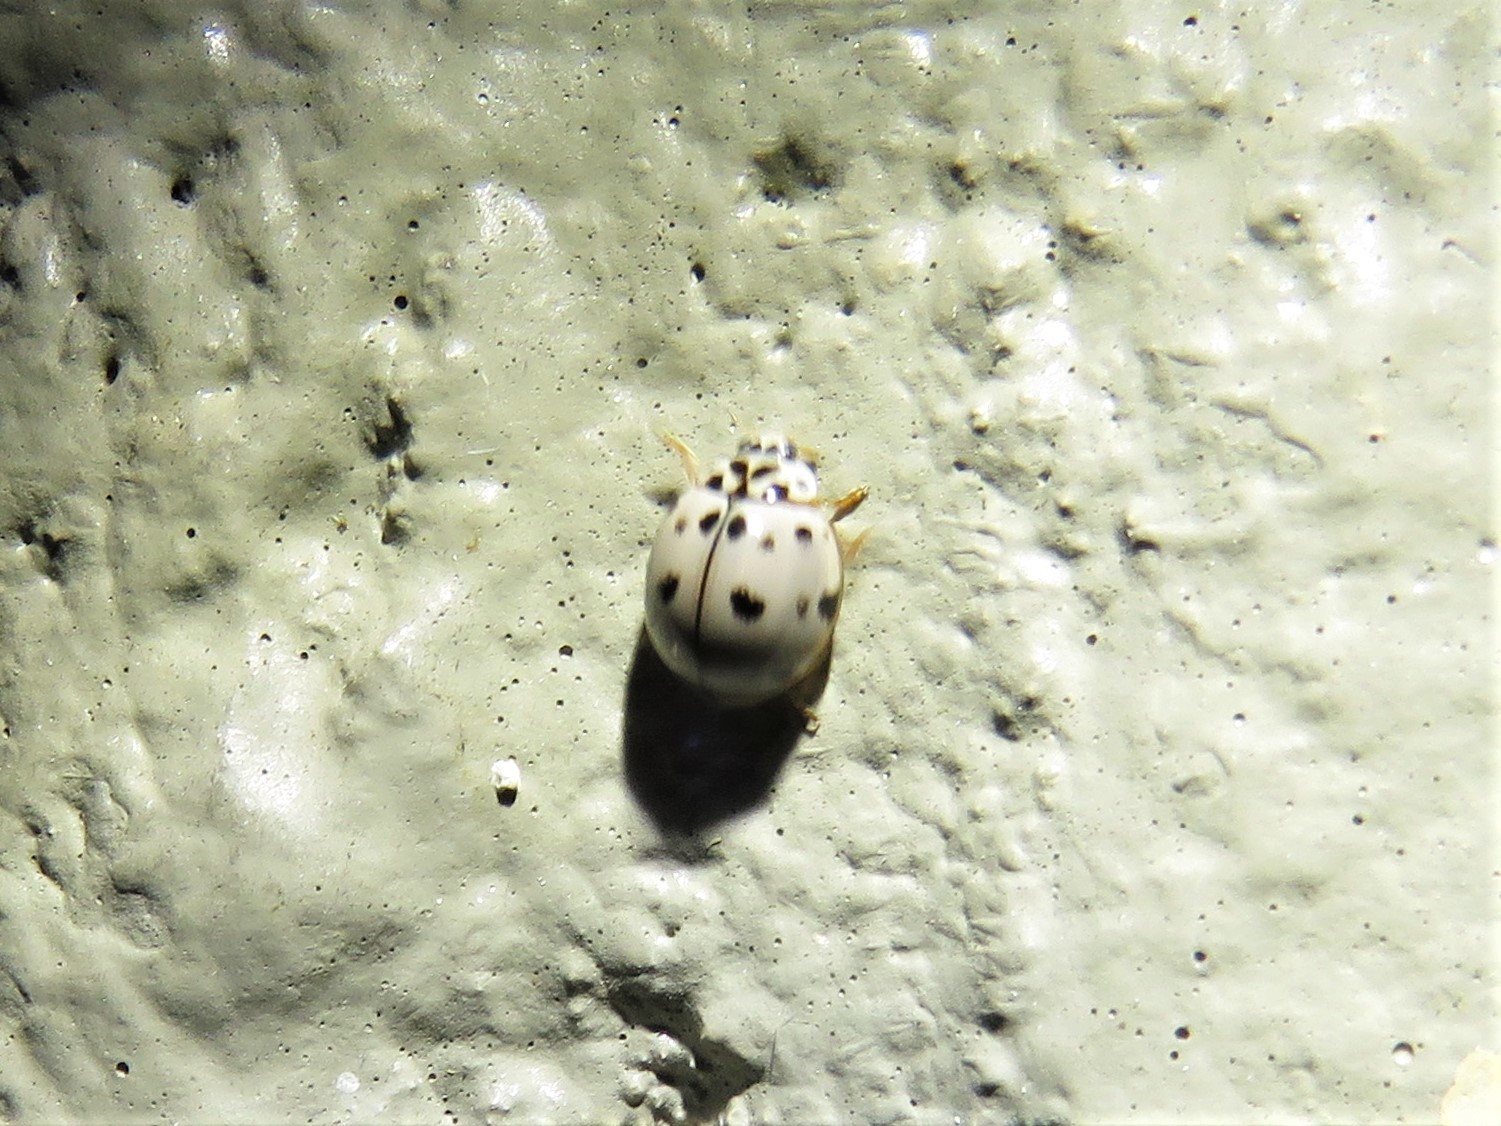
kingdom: Animalia
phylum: Arthropoda
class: Insecta
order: Coleoptera
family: Coccinellidae
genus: Olla
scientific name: Olla v-nigrum
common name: Ashy gray lady beetle
